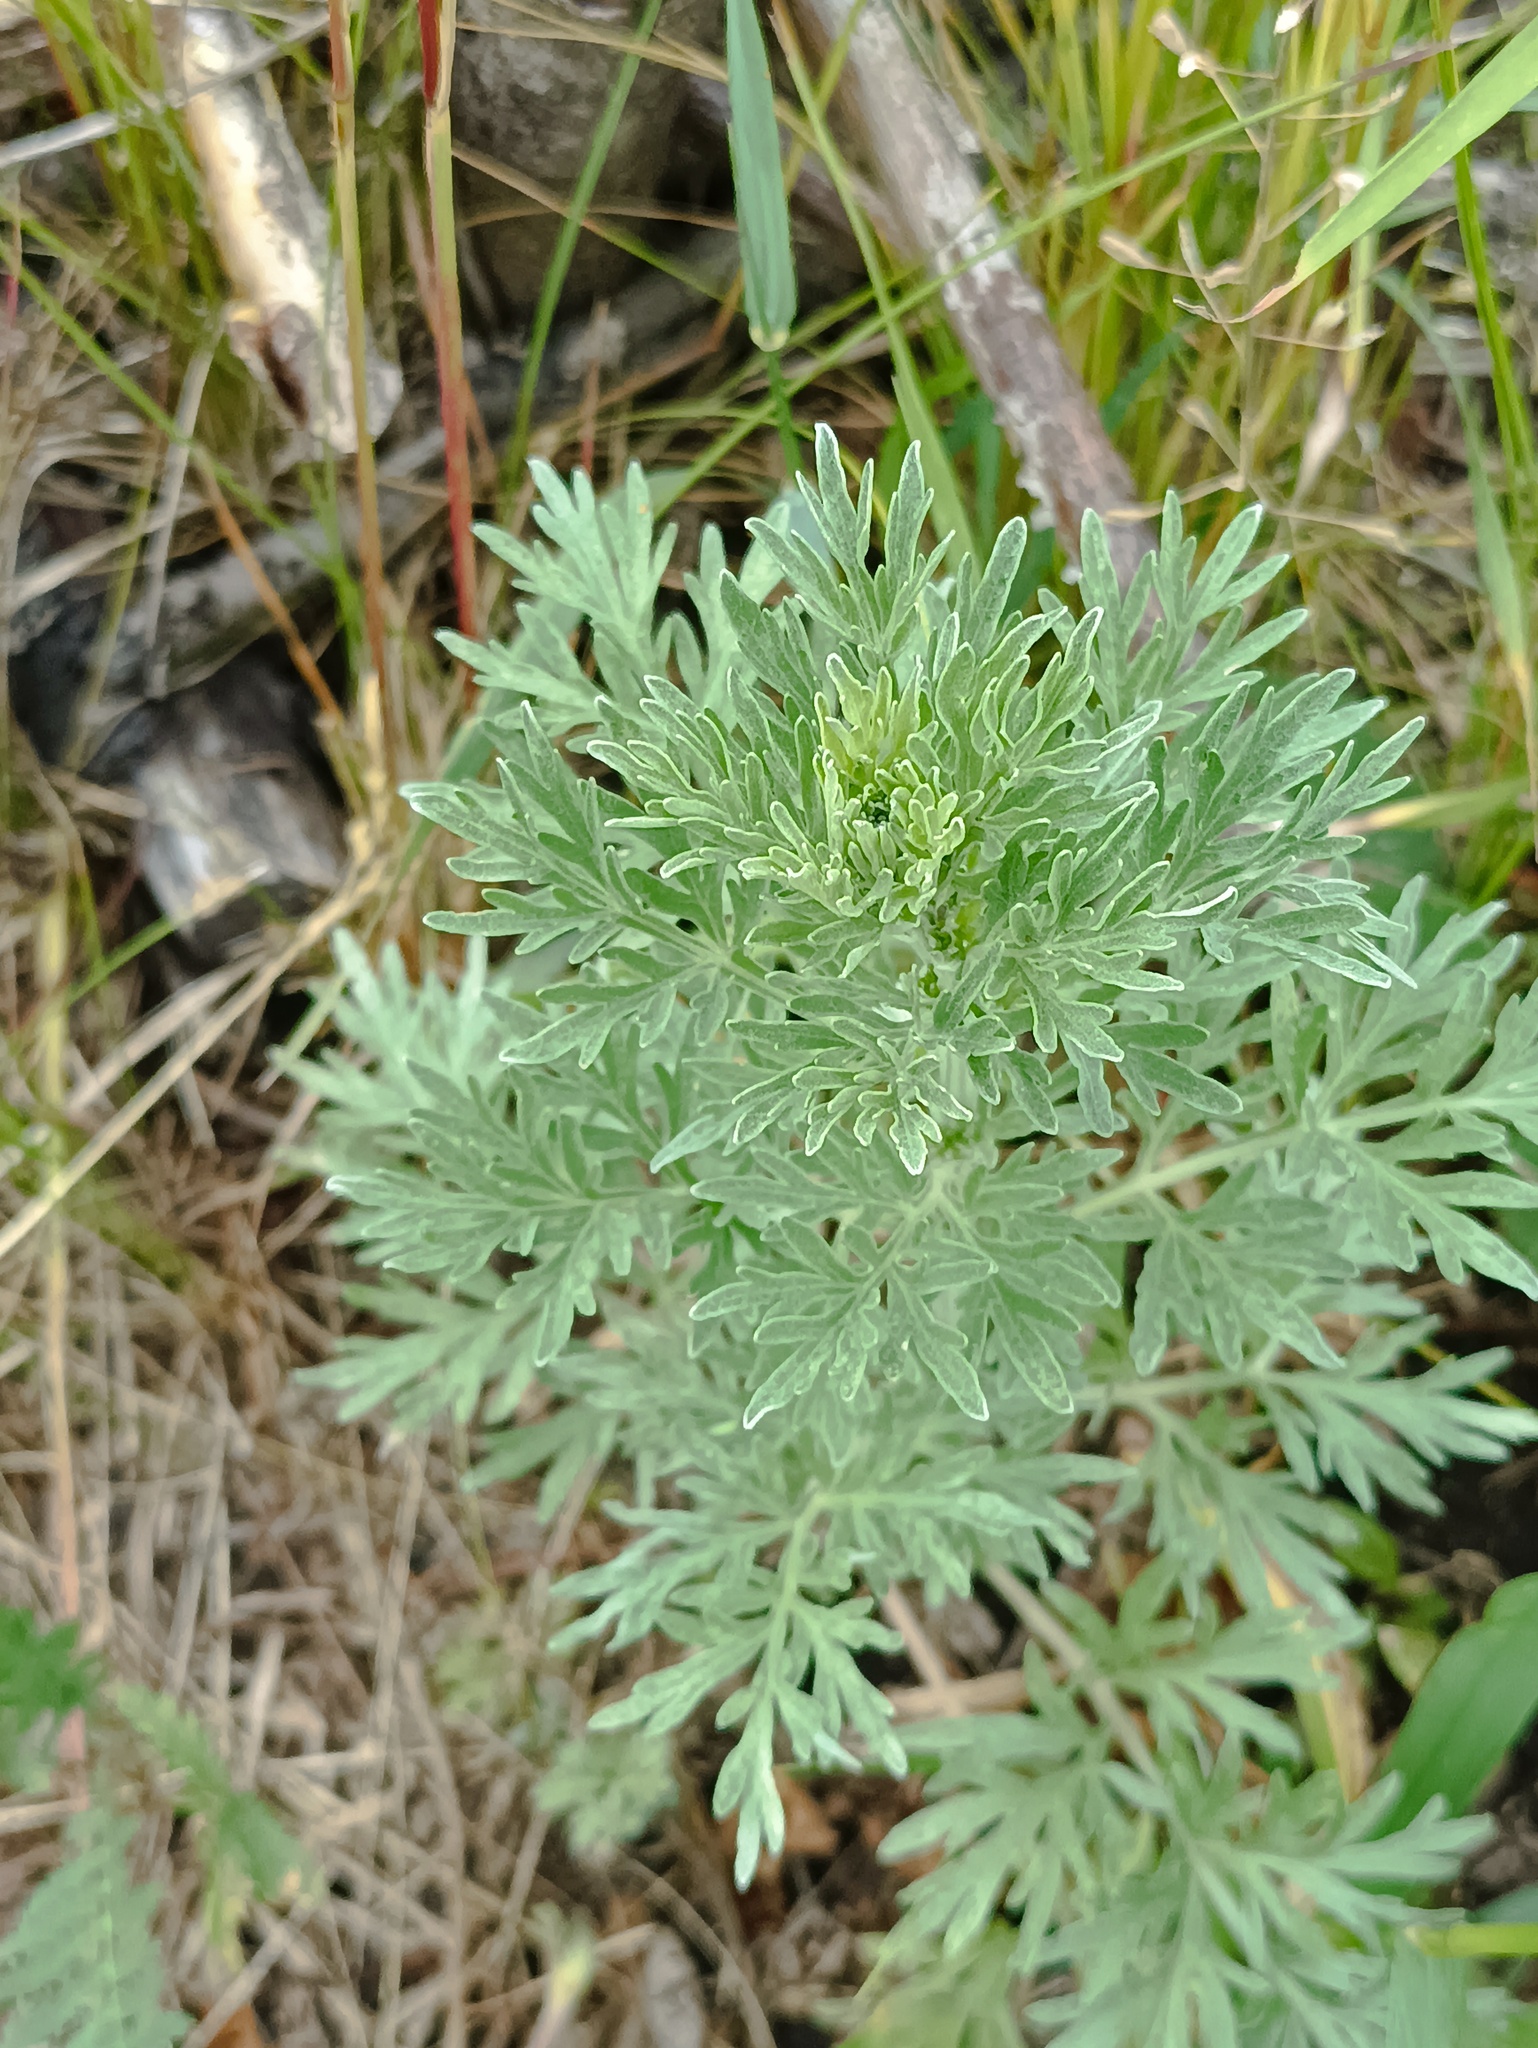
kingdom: Plantae
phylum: Tracheophyta
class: Magnoliopsida
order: Asterales
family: Asteraceae
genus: Artemisia
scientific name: Artemisia absinthium
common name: Wormwood
